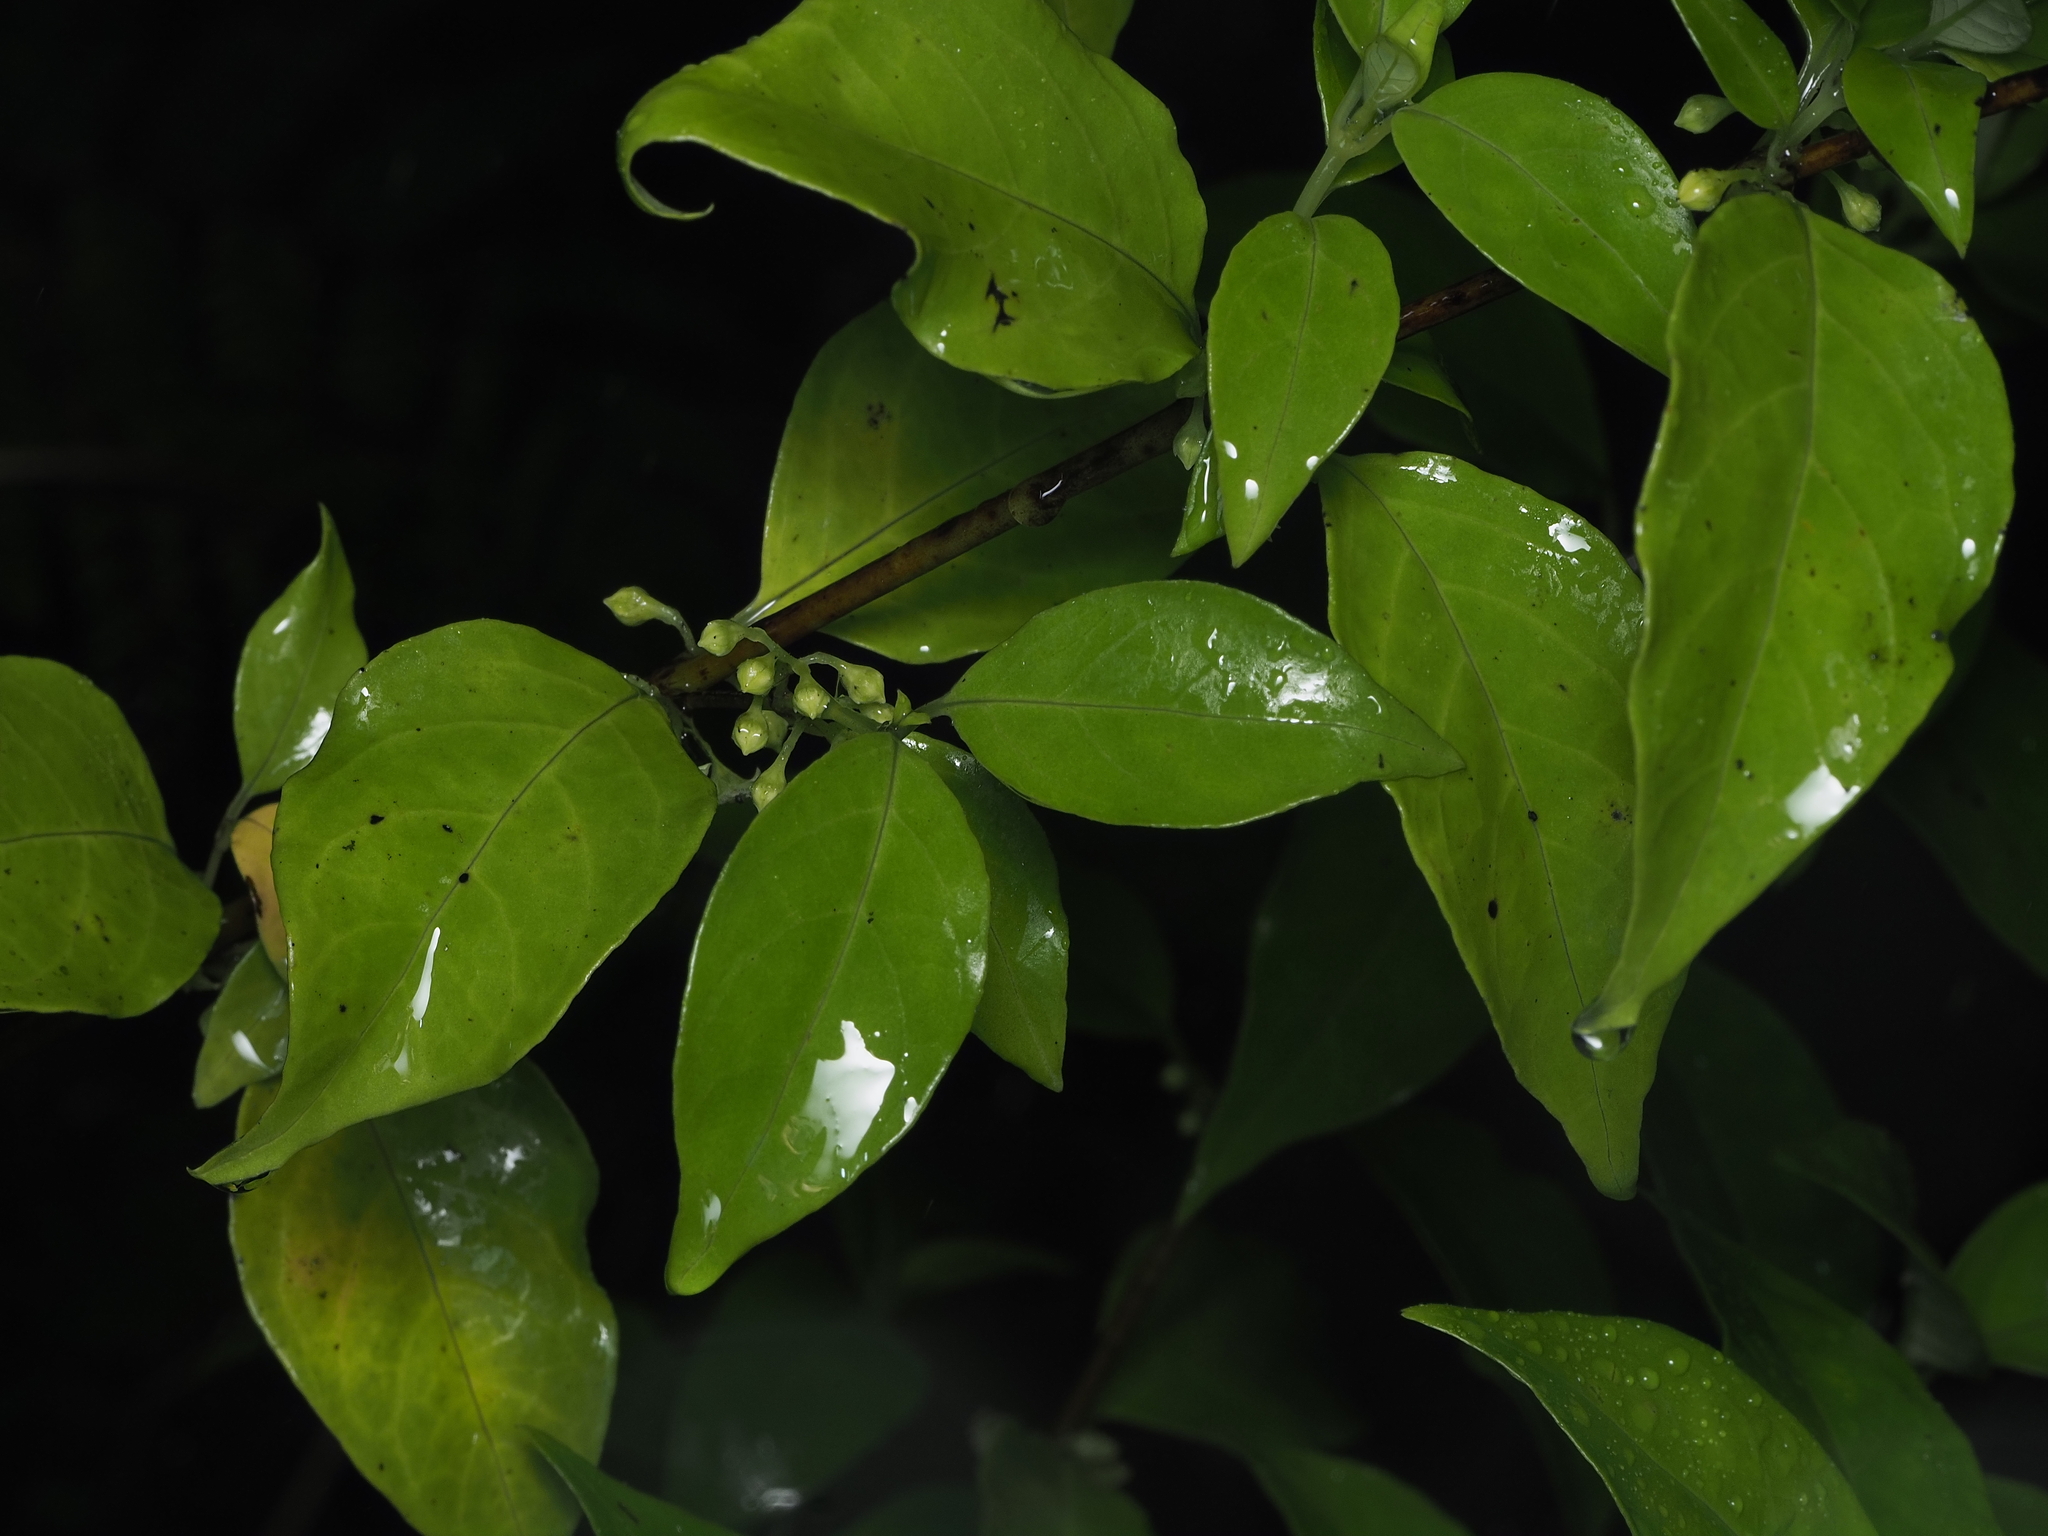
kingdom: Plantae
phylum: Tracheophyta
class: Magnoliopsida
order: Gentianales
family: Loganiaceae
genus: Geniostoma
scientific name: Geniostoma ligustrifolium
